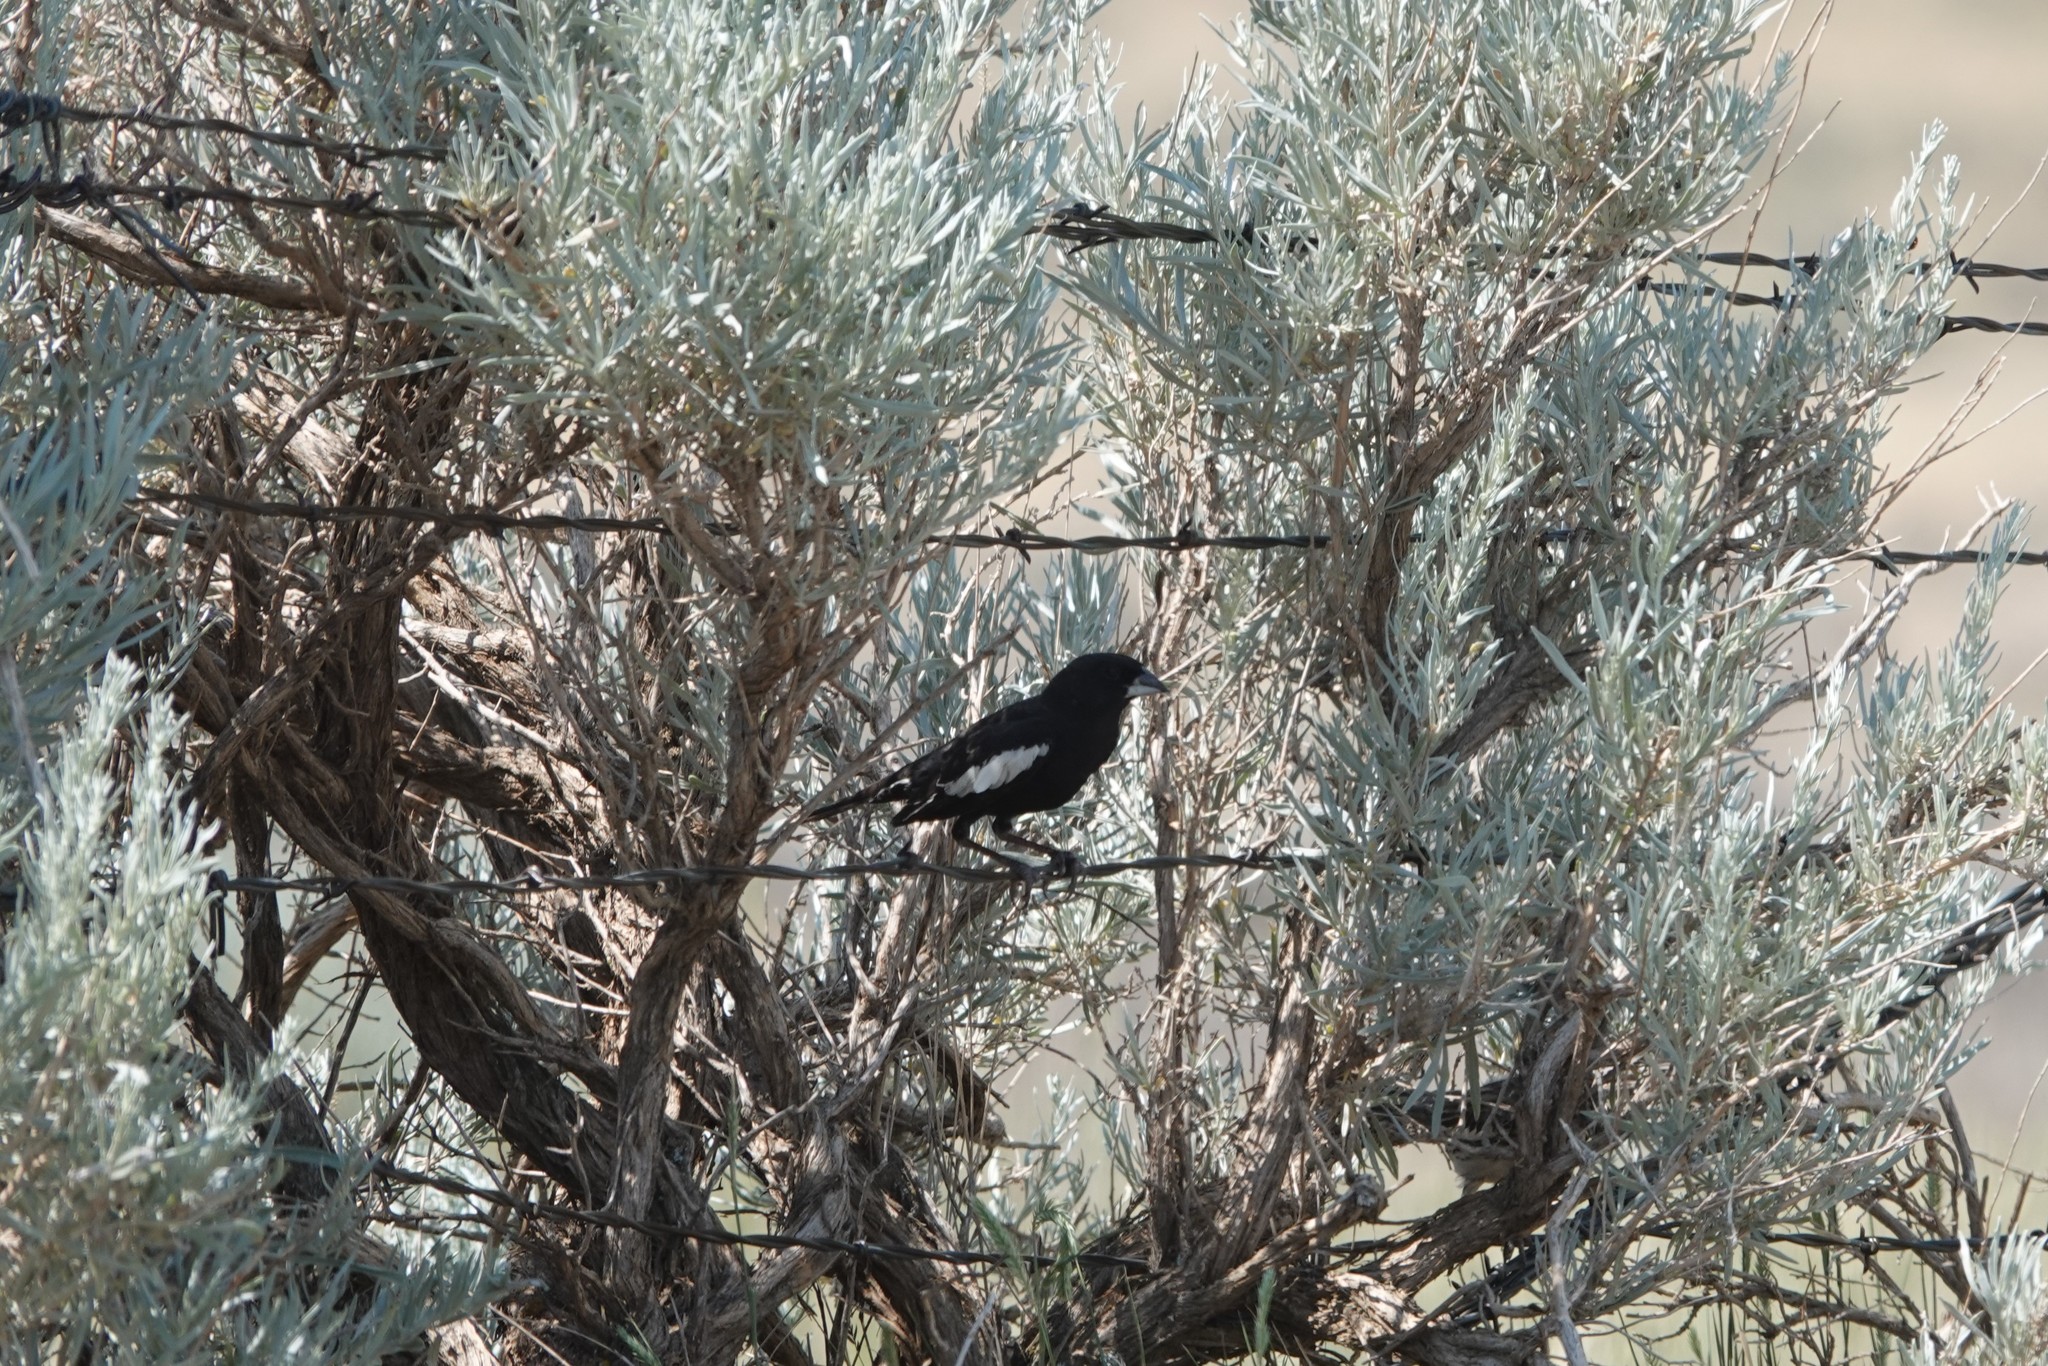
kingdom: Animalia
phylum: Chordata
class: Aves
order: Passeriformes
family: Passerellidae
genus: Calamospiza
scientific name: Calamospiza melanocorys
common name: Lark bunting
